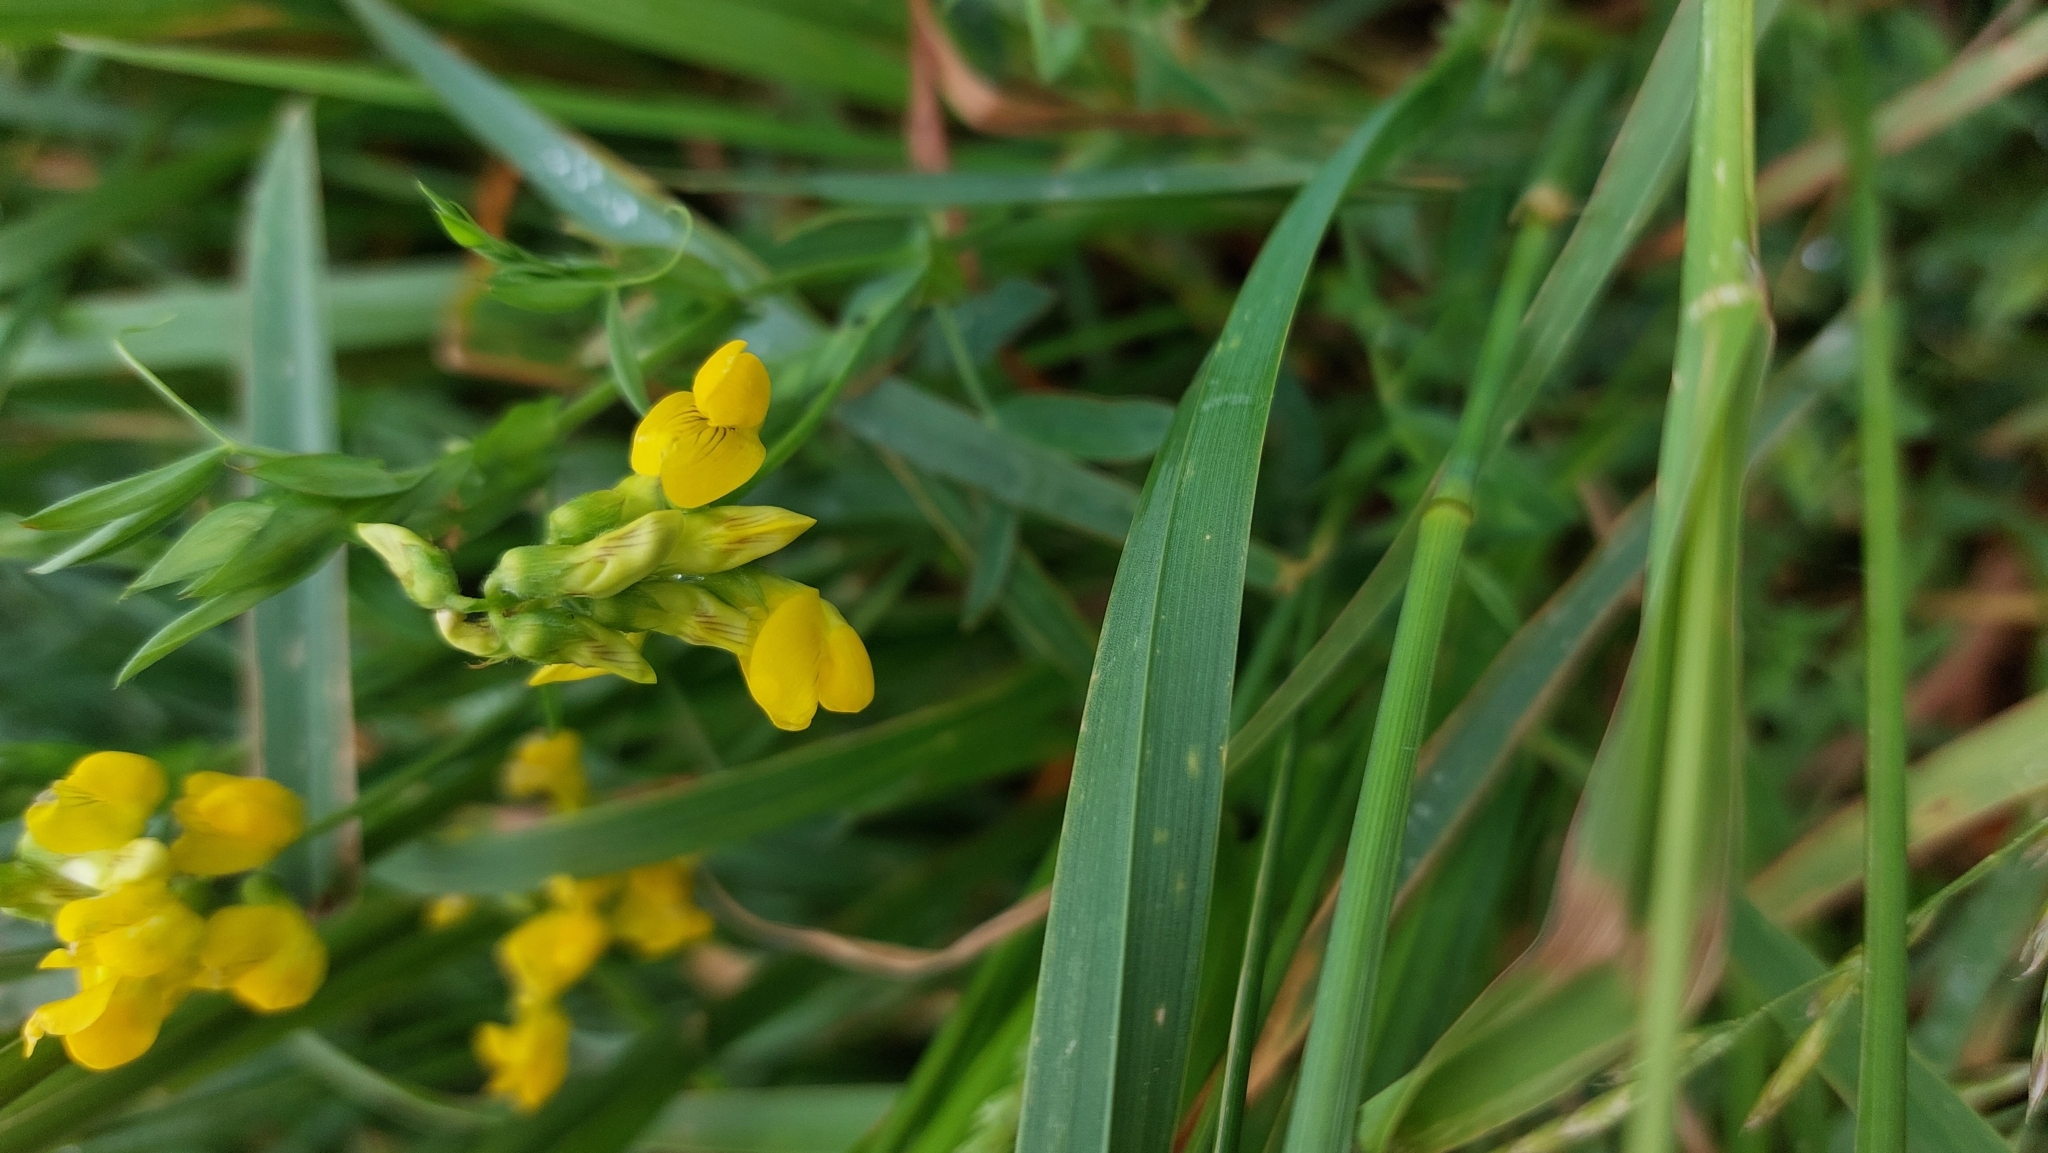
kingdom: Plantae
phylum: Tracheophyta
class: Magnoliopsida
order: Fabales
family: Fabaceae
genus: Lathyrus
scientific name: Lathyrus pratensis
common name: Meadow vetchling
